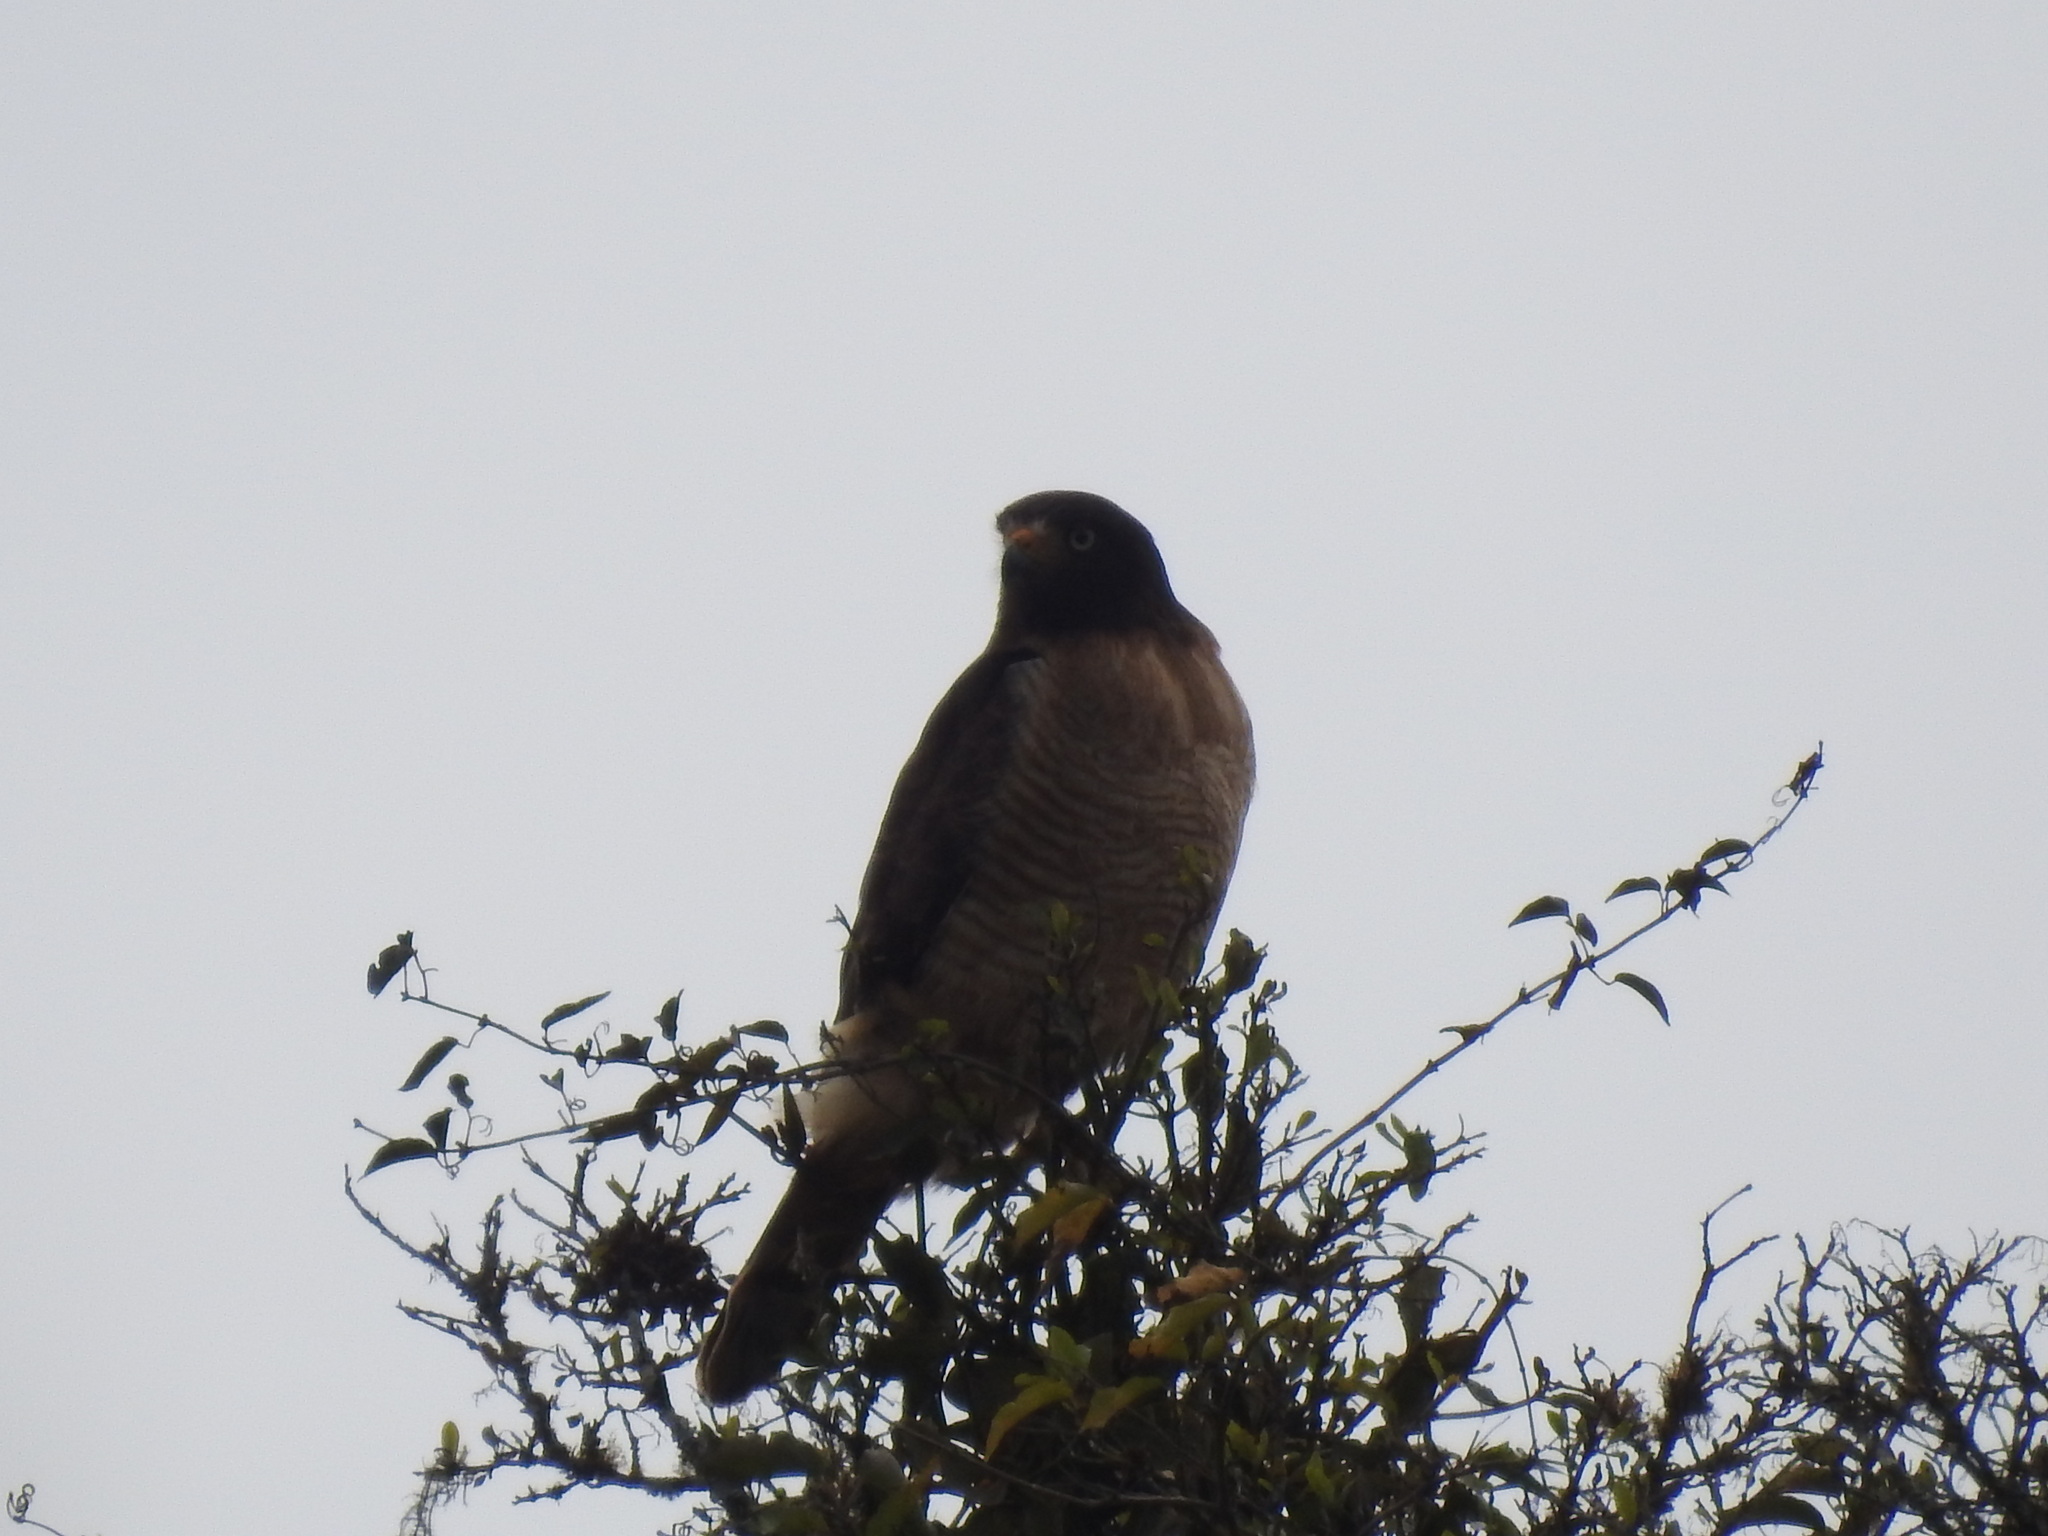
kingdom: Animalia
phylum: Chordata
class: Aves
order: Accipitriformes
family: Accipitridae
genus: Rupornis
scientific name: Rupornis magnirostris
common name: Roadside hawk
